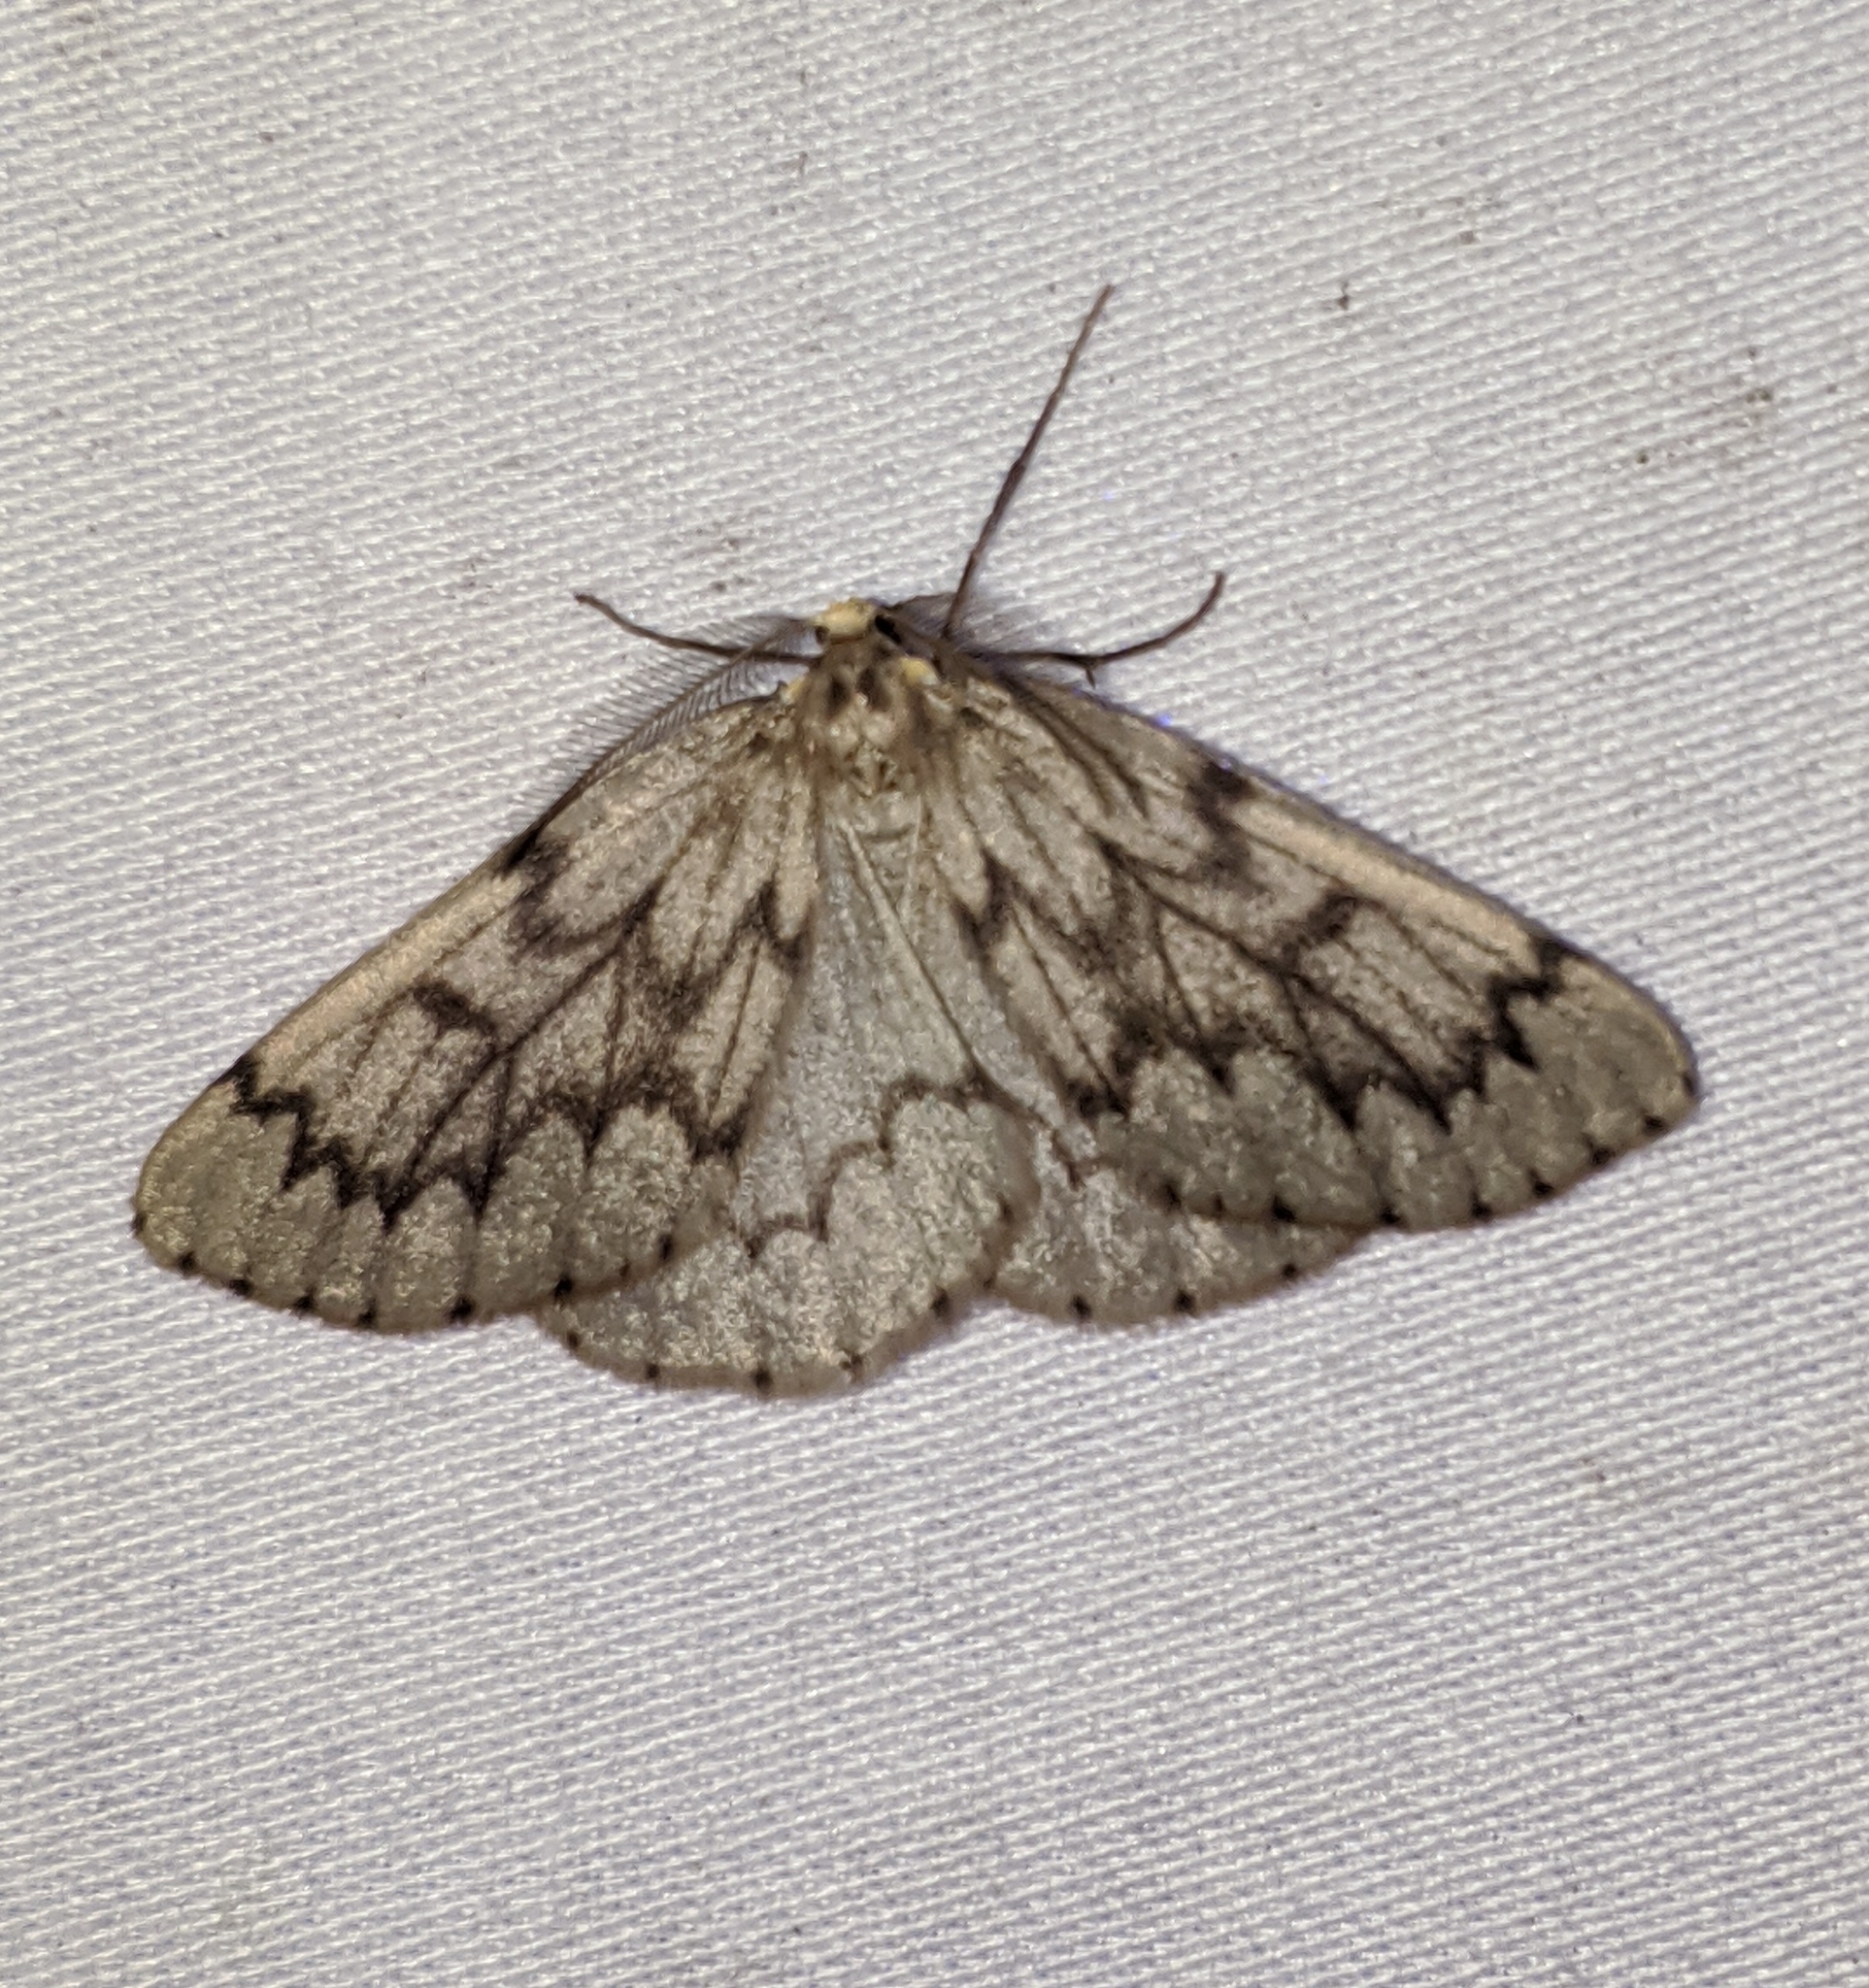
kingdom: Animalia
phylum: Arthropoda
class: Insecta
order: Lepidoptera
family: Geometridae
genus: Nepytia
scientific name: Nepytia phantasmaria
